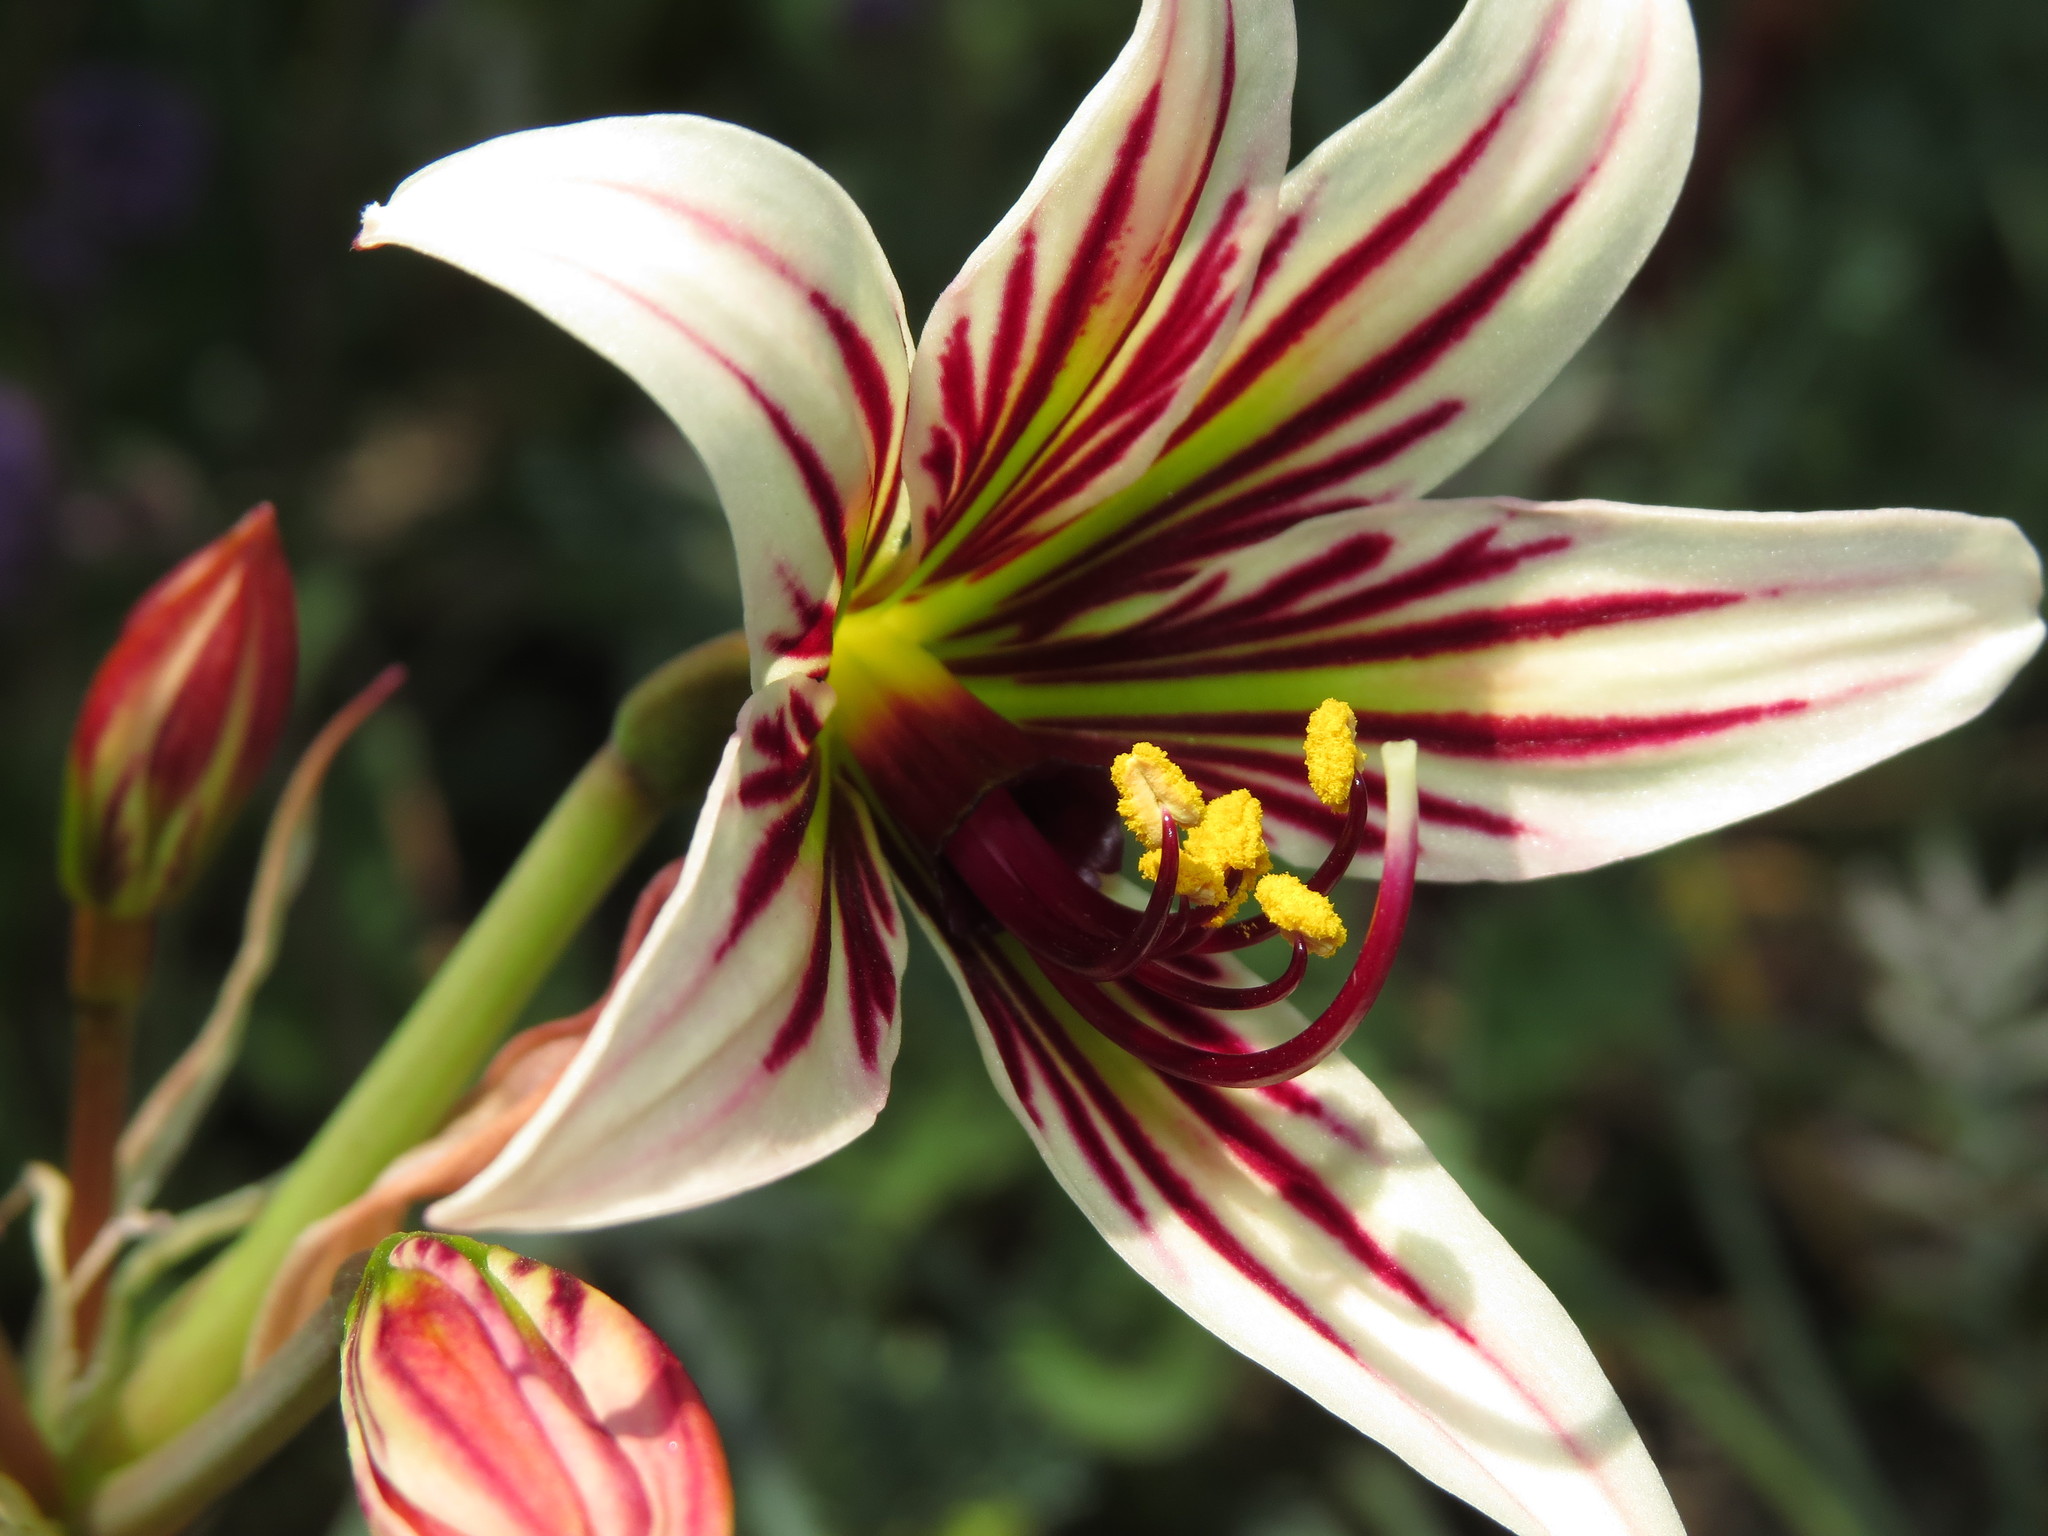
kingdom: Plantae
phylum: Tracheophyta
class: Liliopsida
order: Asparagales
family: Amaryllidaceae
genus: Phycella
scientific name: Phycella arzae
